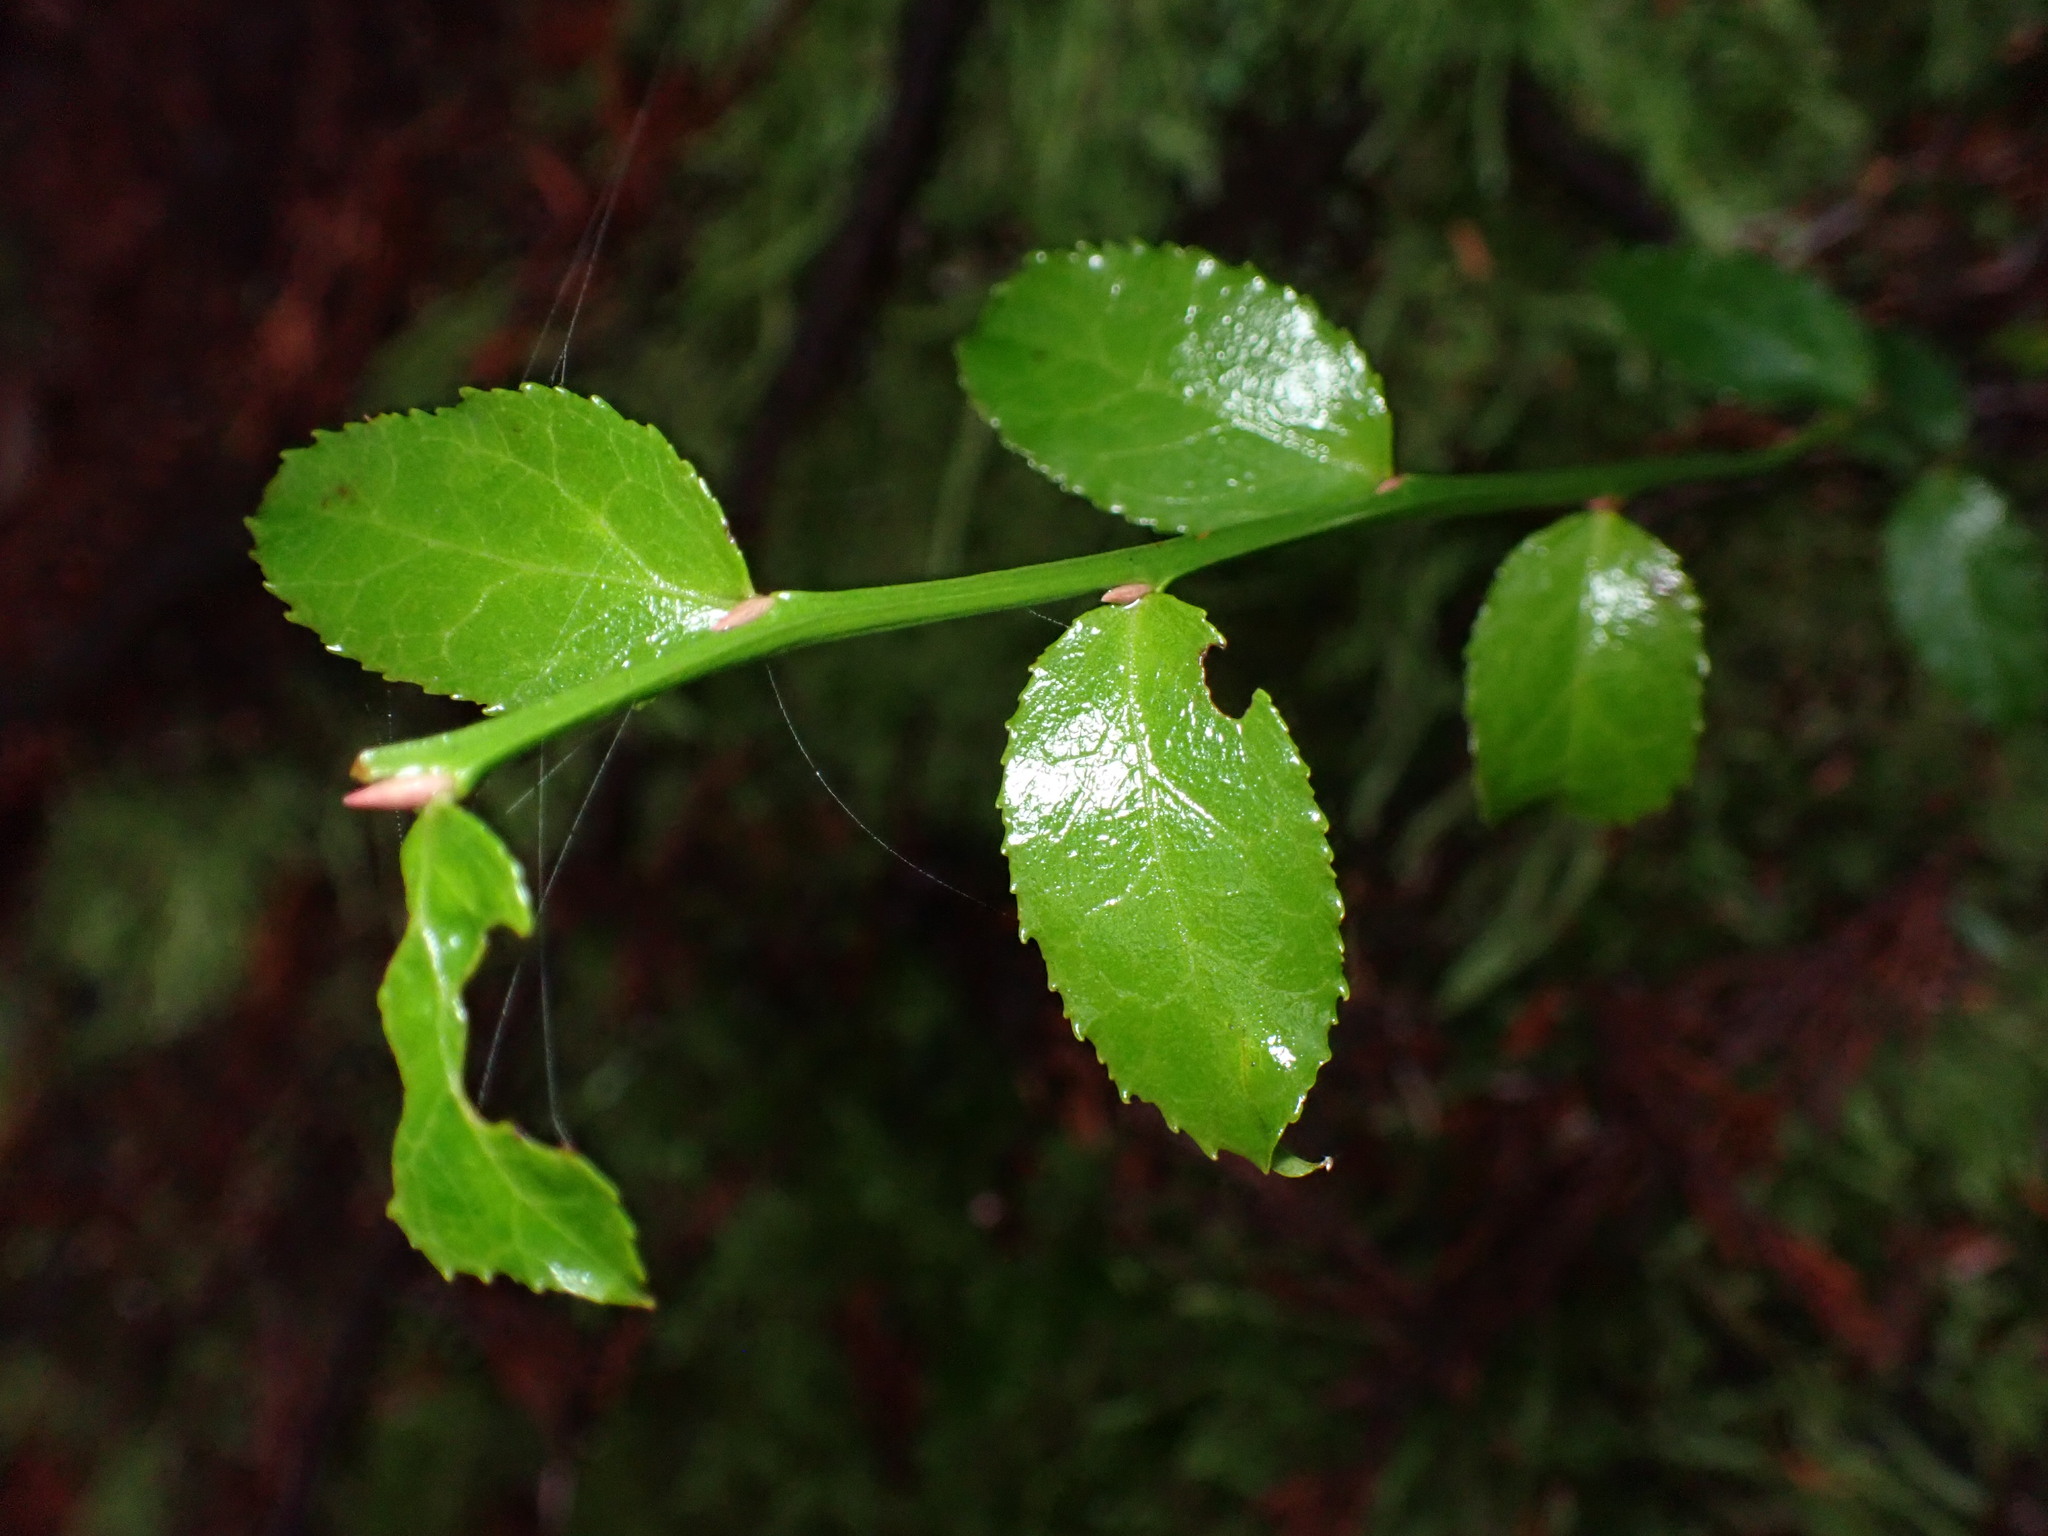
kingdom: Plantae
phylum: Tracheophyta
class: Magnoliopsida
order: Ericales
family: Ericaceae
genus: Vaccinium
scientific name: Vaccinium parvifolium
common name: Red-huckleberry
